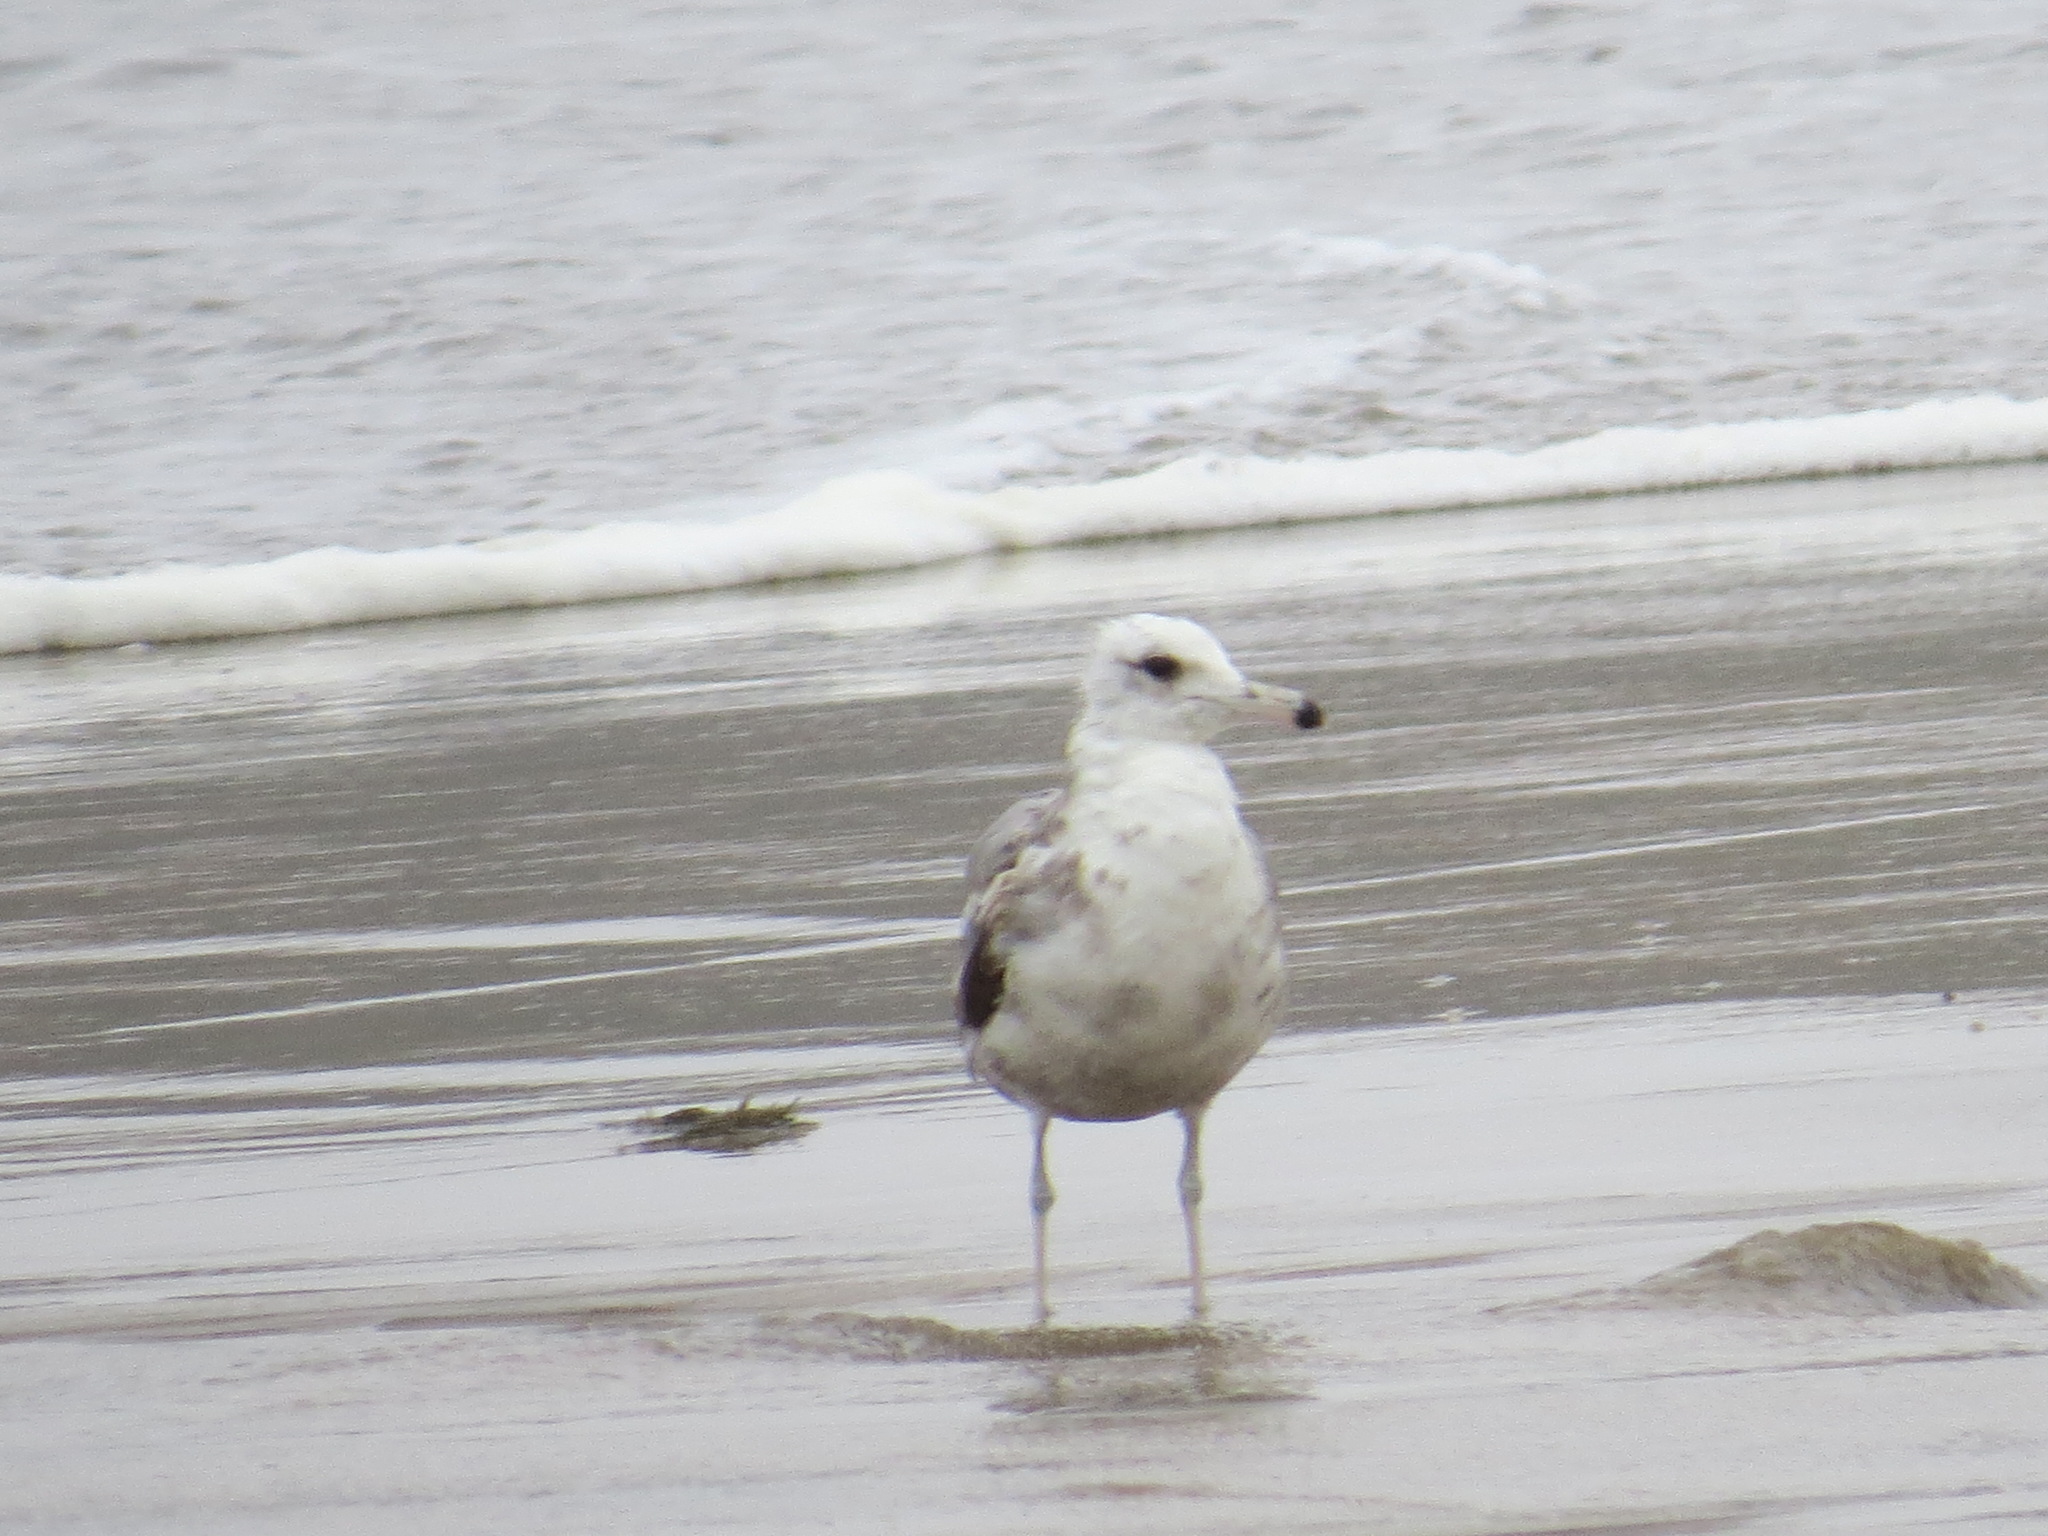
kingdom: Animalia
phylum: Chordata
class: Aves
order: Charadriiformes
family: Laridae
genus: Larus
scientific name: Larus californicus
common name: California gull
